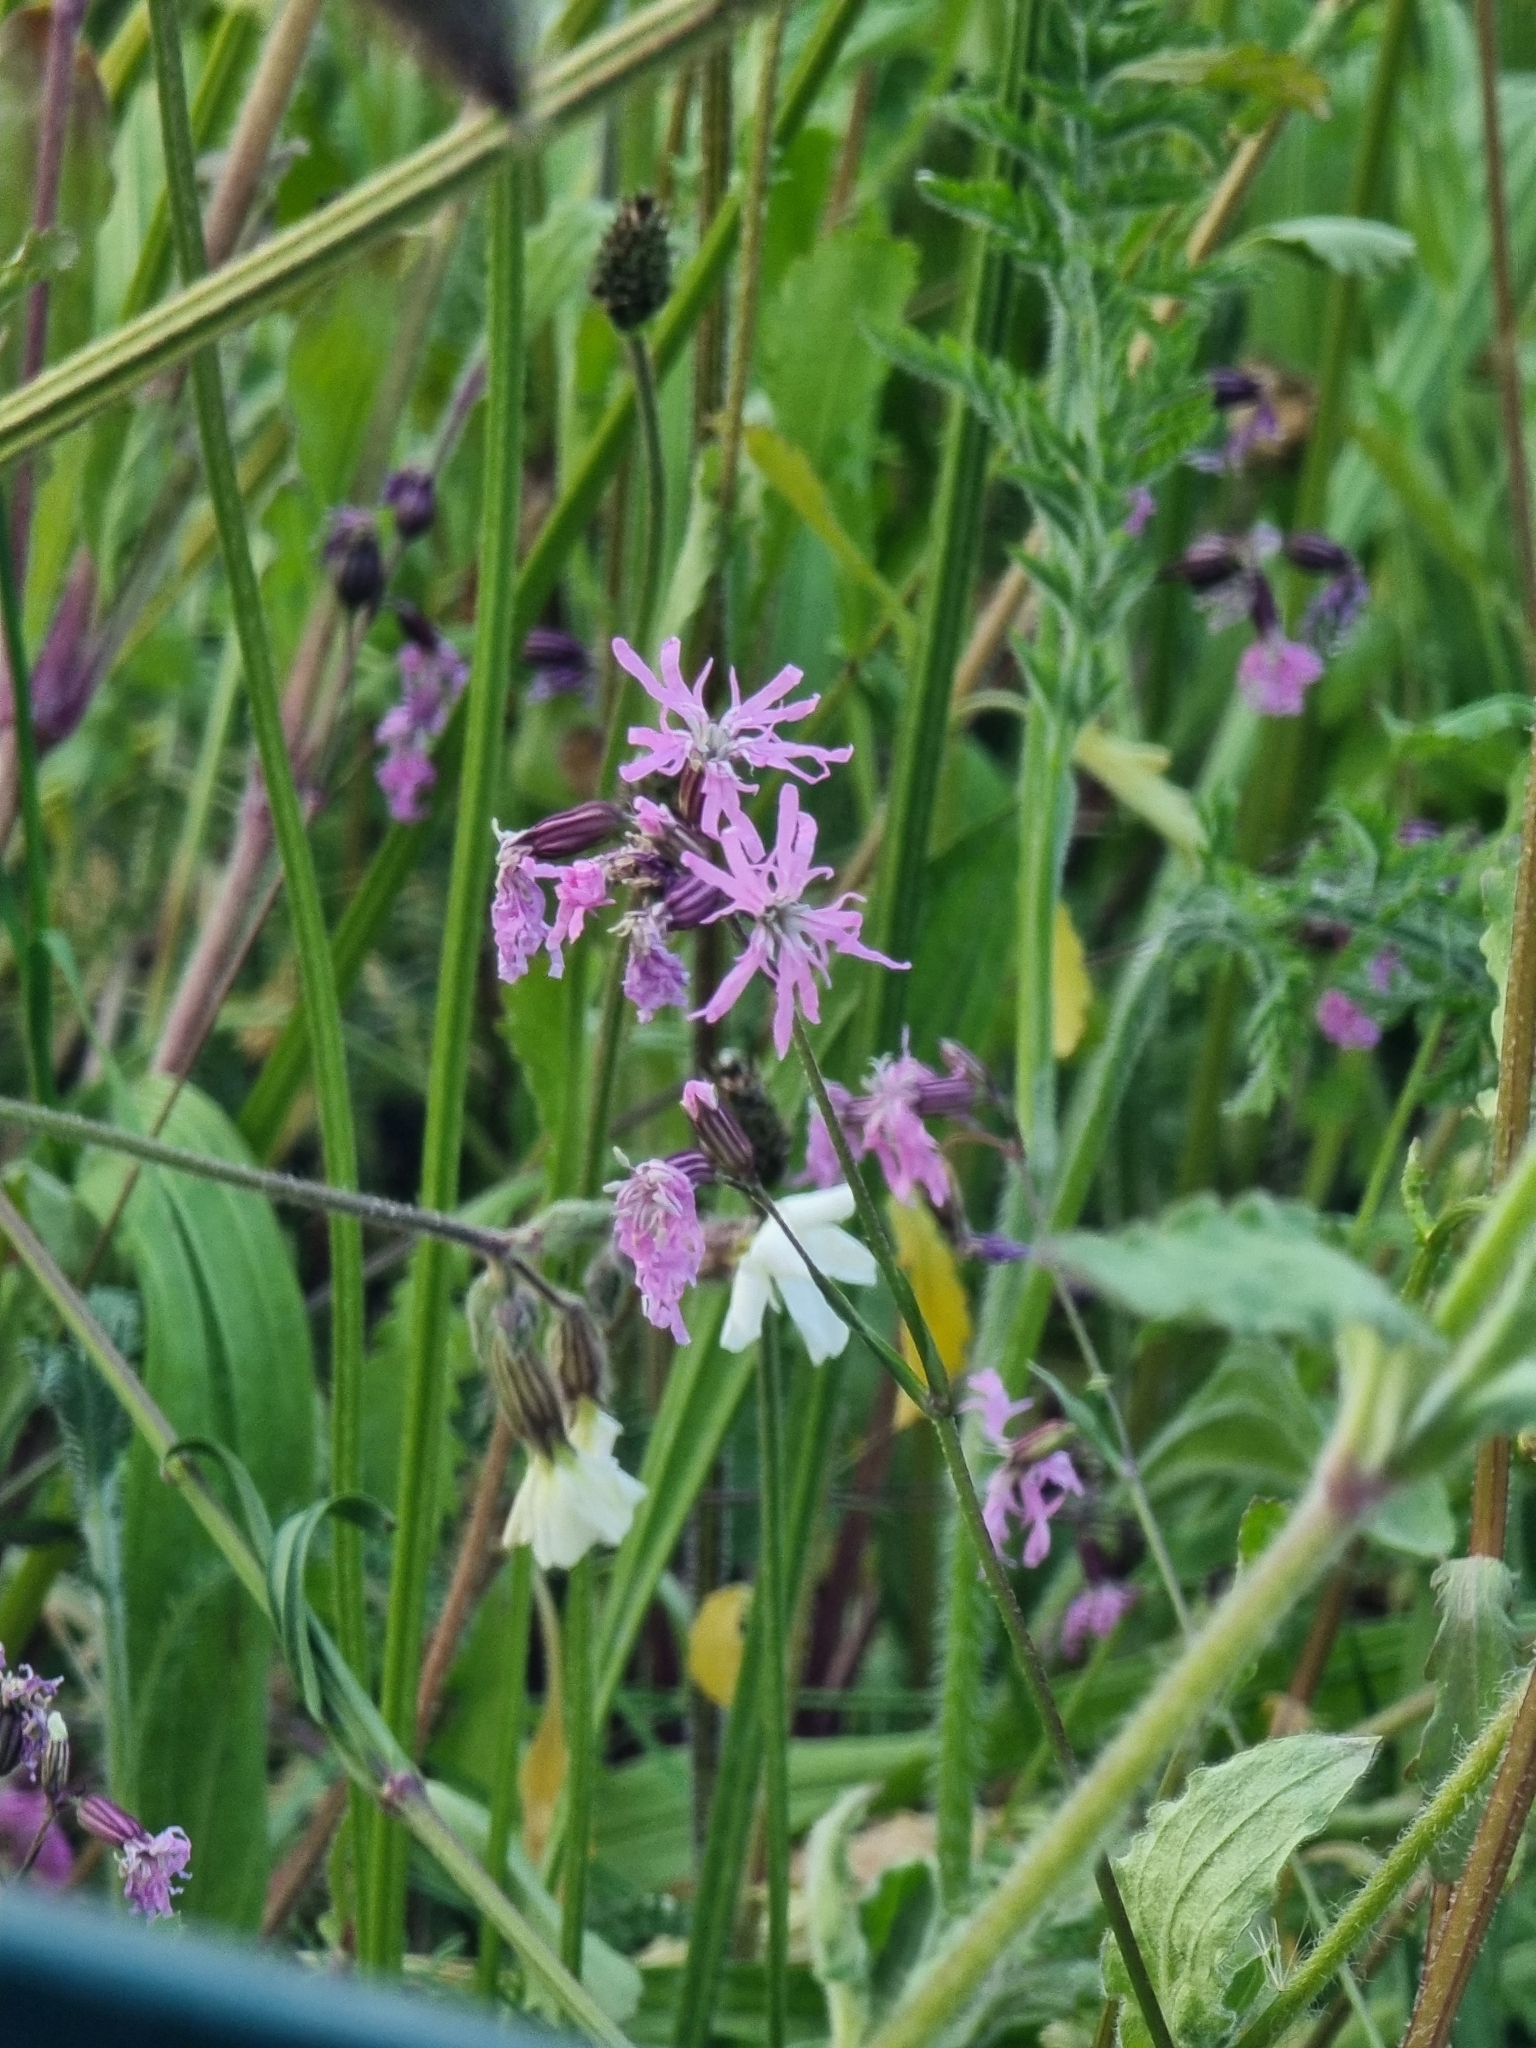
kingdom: Plantae
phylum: Tracheophyta
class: Magnoliopsida
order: Caryophyllales
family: Caryophyllaceae
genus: Silene
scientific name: Silene flos-cuculi
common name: Ragged-robin
